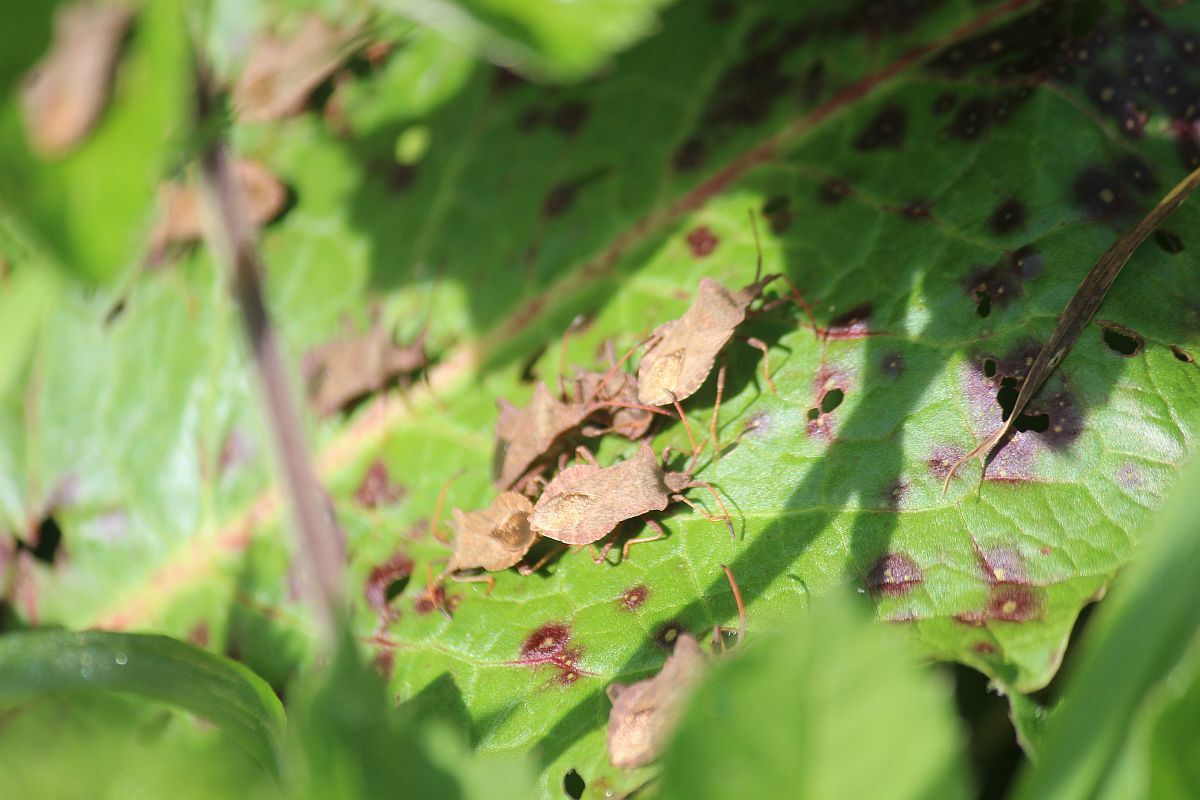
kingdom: Animalia
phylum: Arthropoda
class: Insecta
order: Hemiptera
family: Coreidae
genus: Coreus
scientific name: Coreus marginatus
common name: Dock bug
